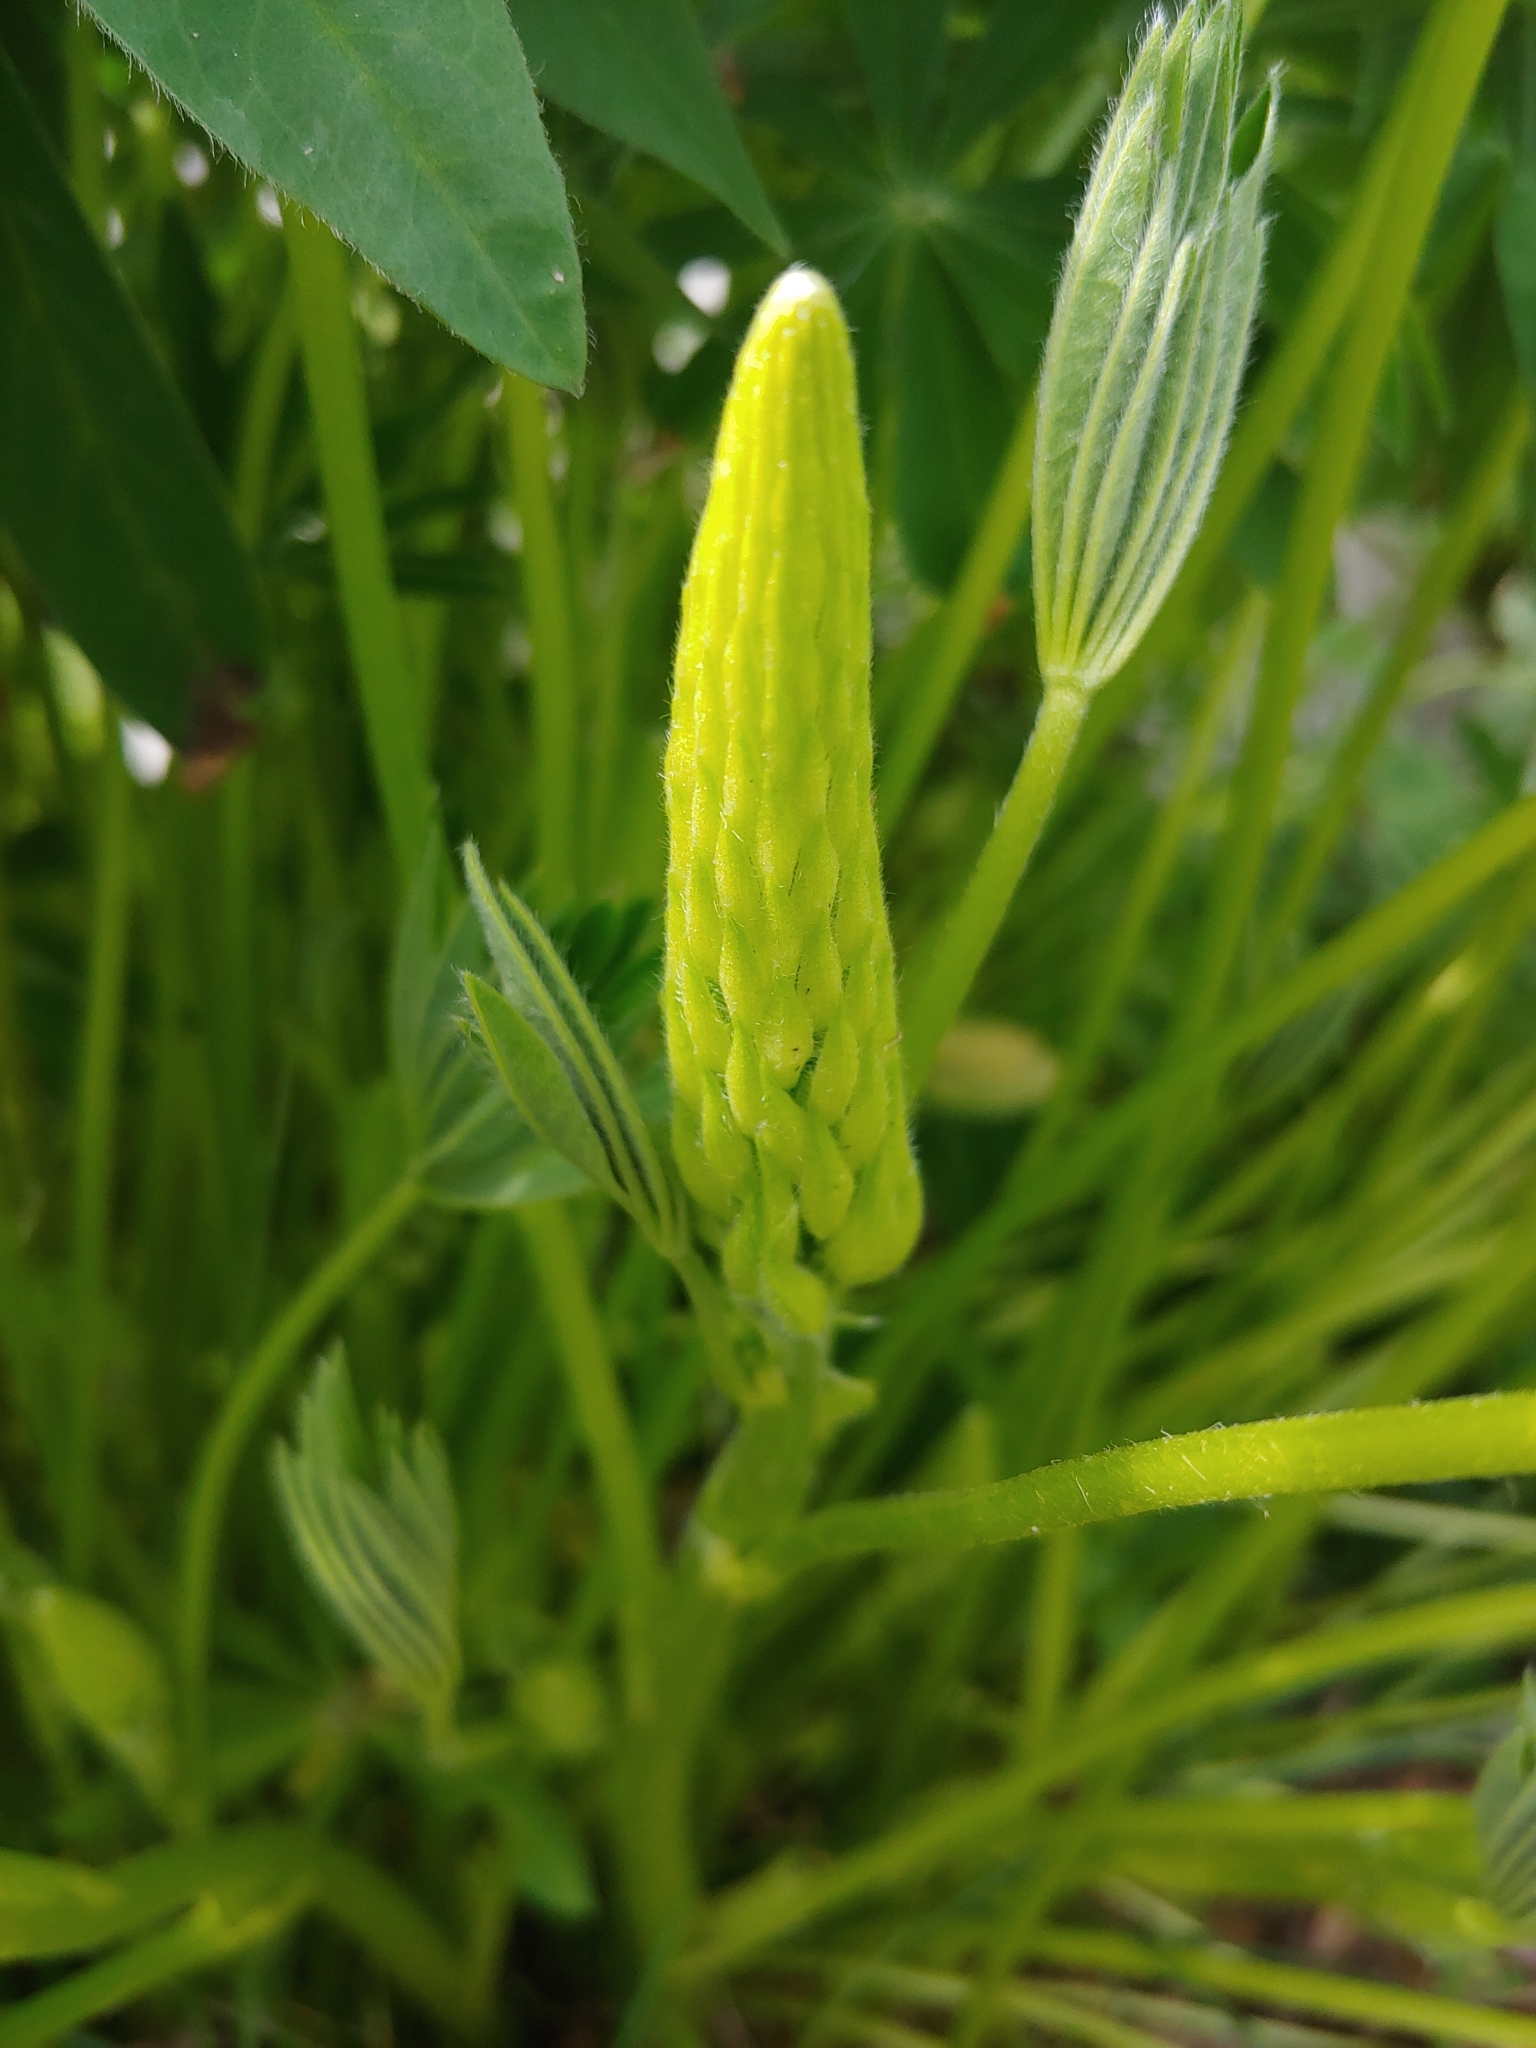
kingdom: Plantae
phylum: Tracheophyta
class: Magnoliopsida
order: Fabales
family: Fabaceae
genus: Lupinus
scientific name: Lupinus polyphyllus
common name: Garden lupin
